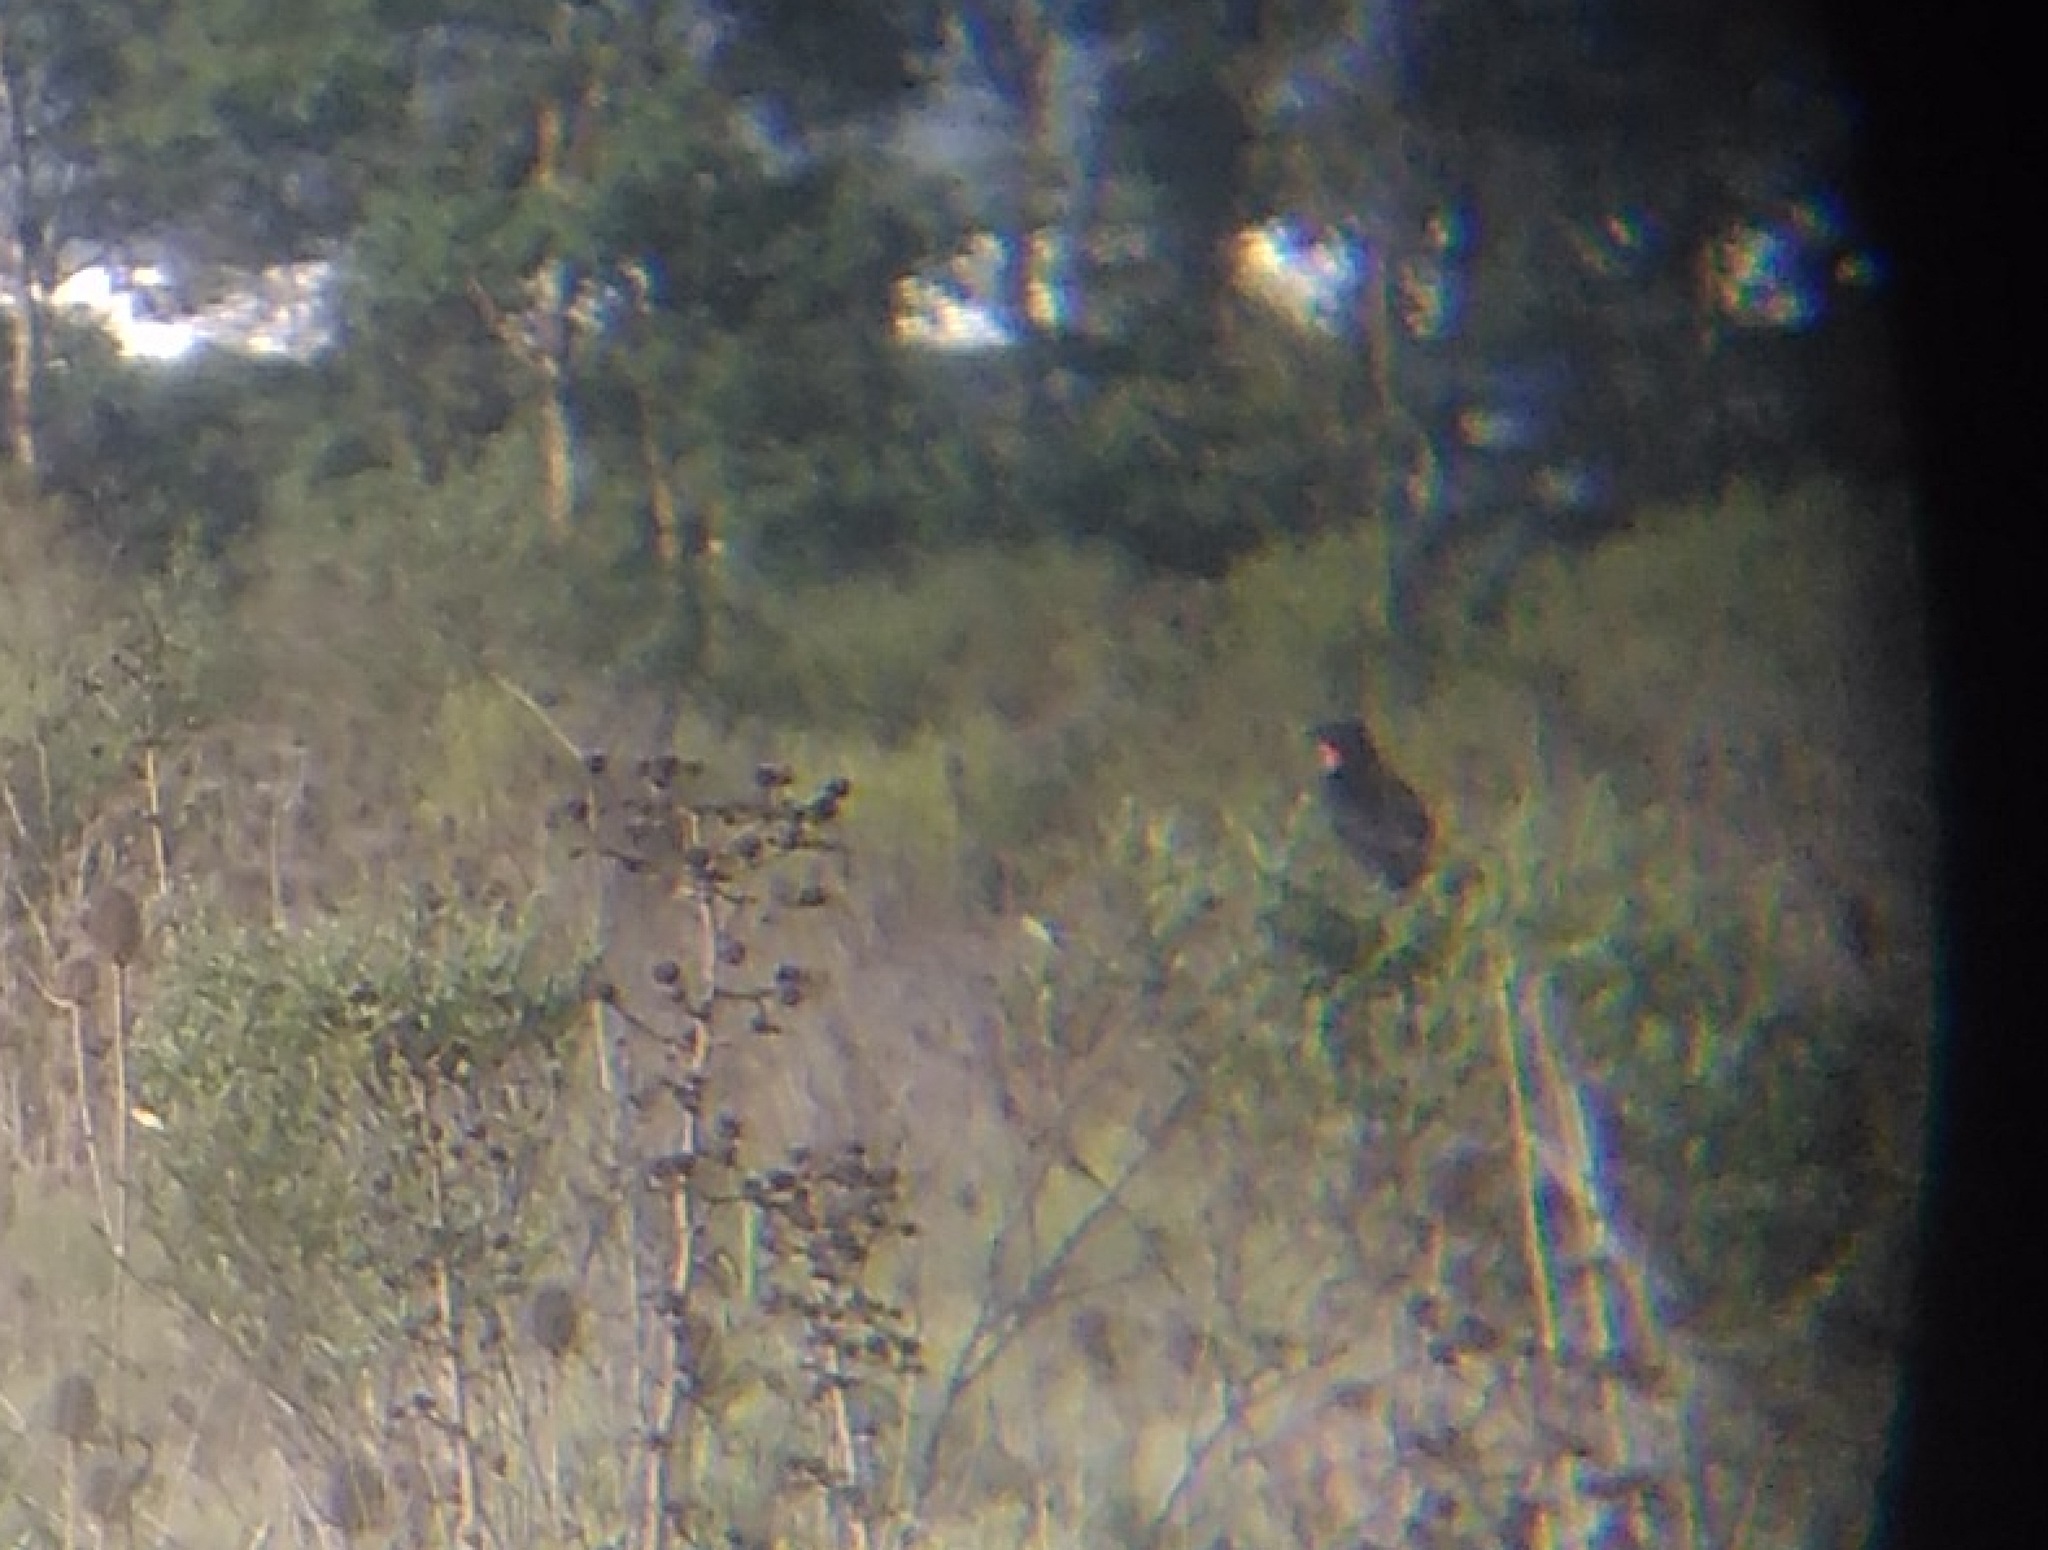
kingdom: Animalia
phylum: Chordata
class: Aves
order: Passeriformes
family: Icteridae
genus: Sturnella
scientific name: Sturnella superciliaris
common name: White-browed blackbird
